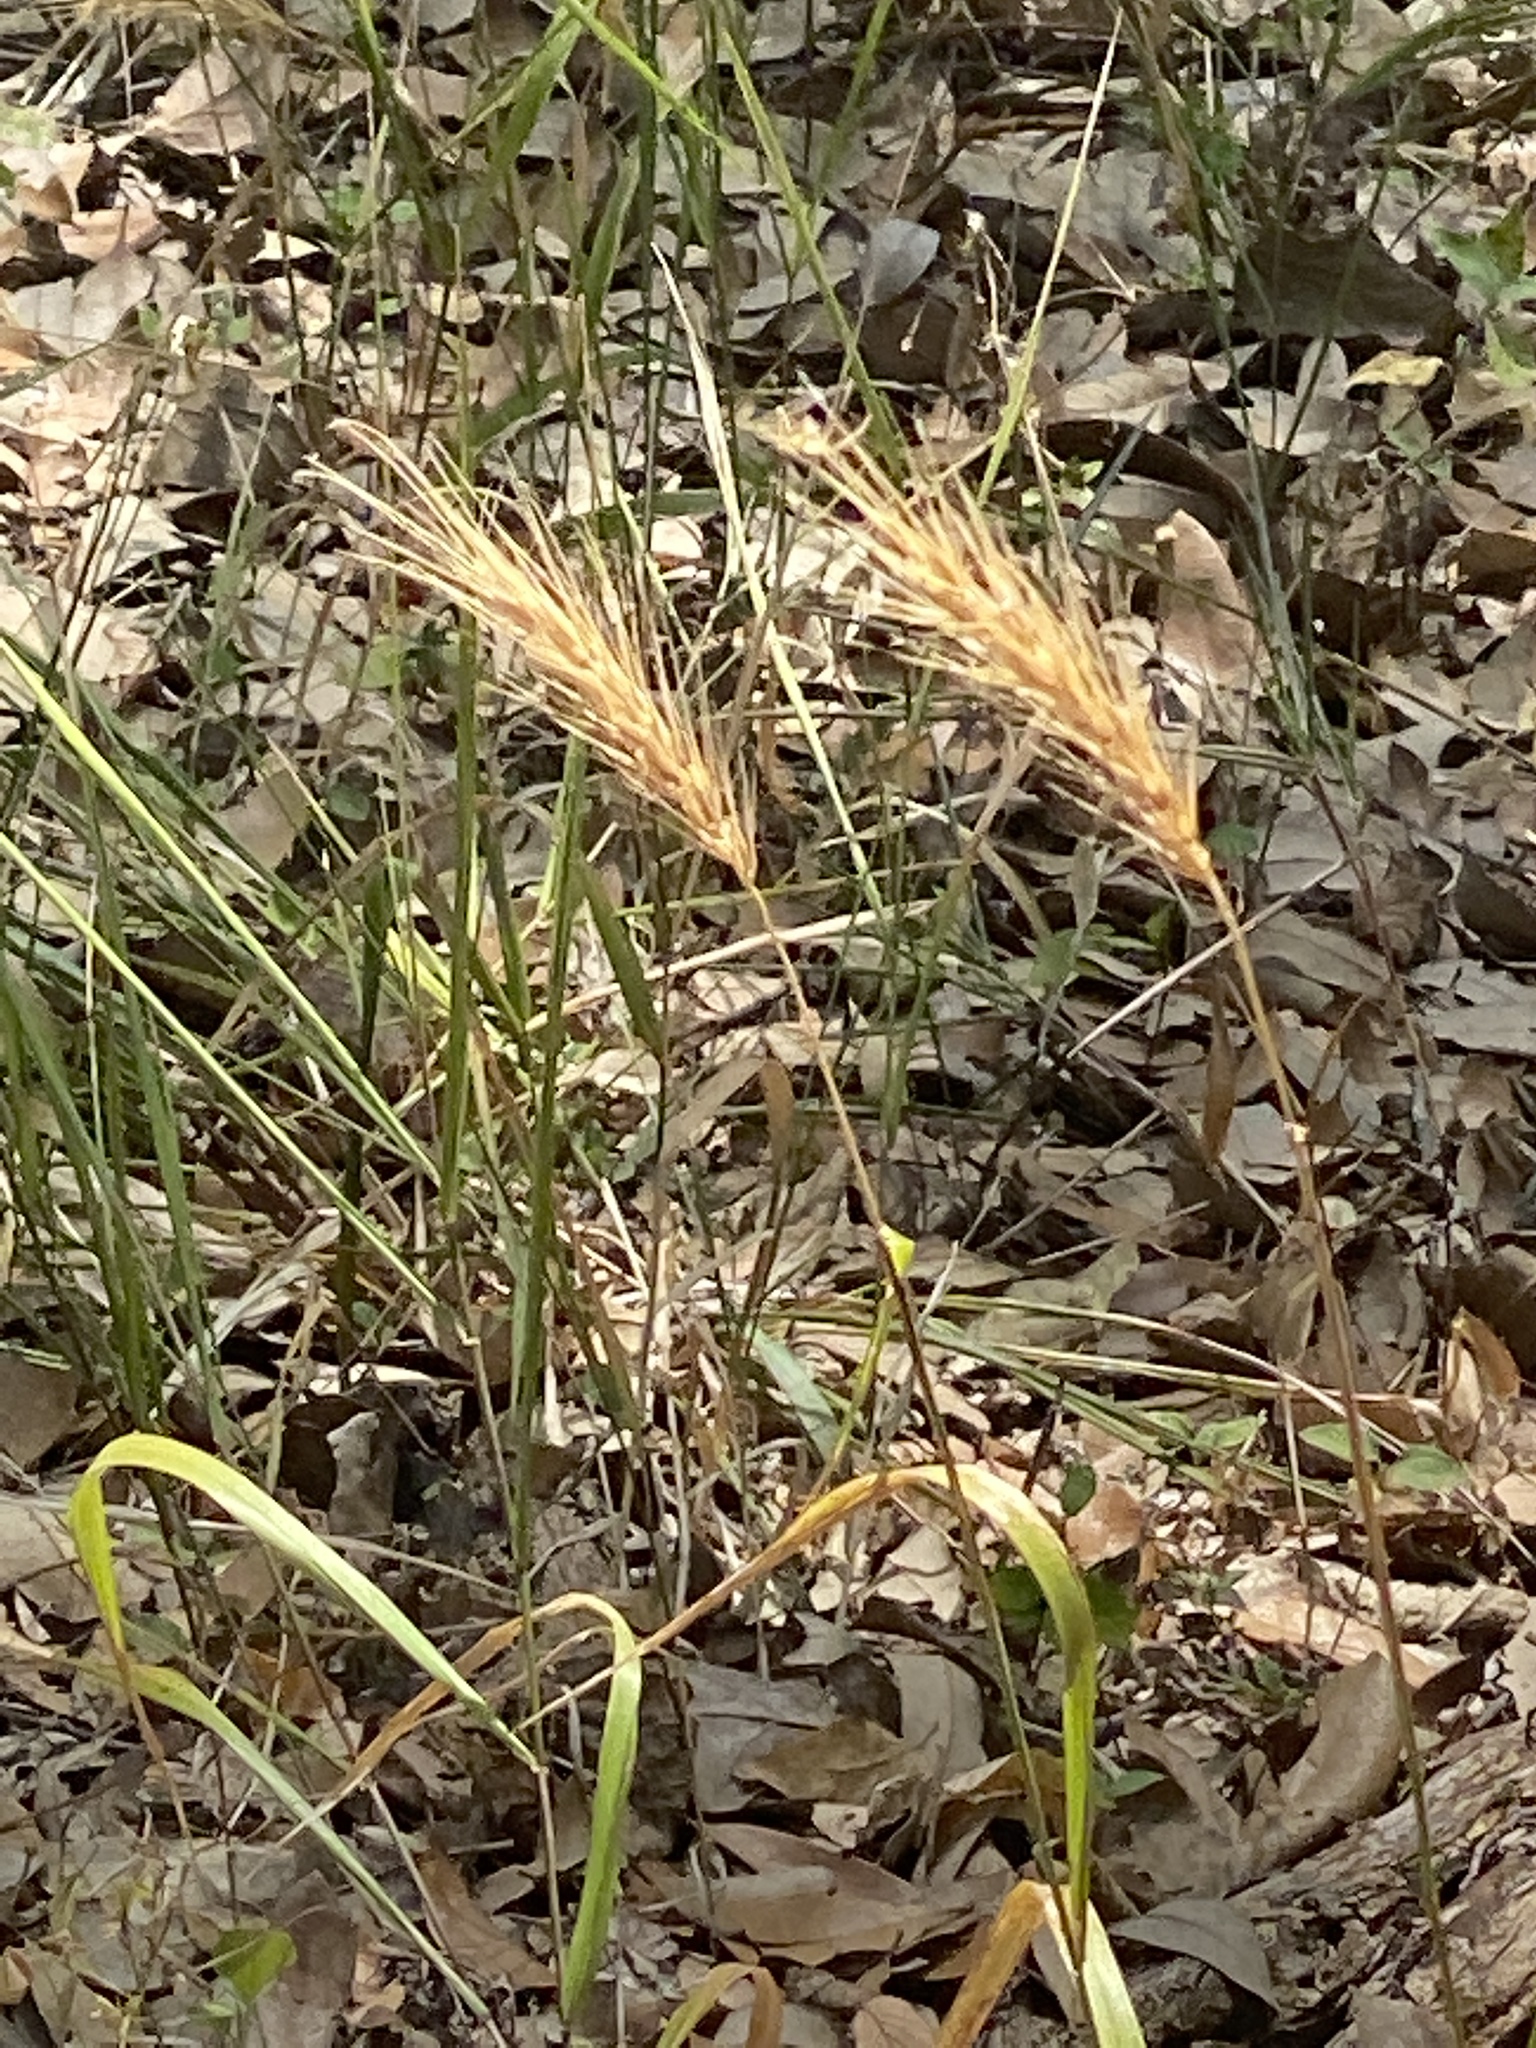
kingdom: Plantae
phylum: Tracheophyta
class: Liliopsida
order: Poales
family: Poaceae
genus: Elymus
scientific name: Elymus virginicus
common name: Common eastern wildrye
